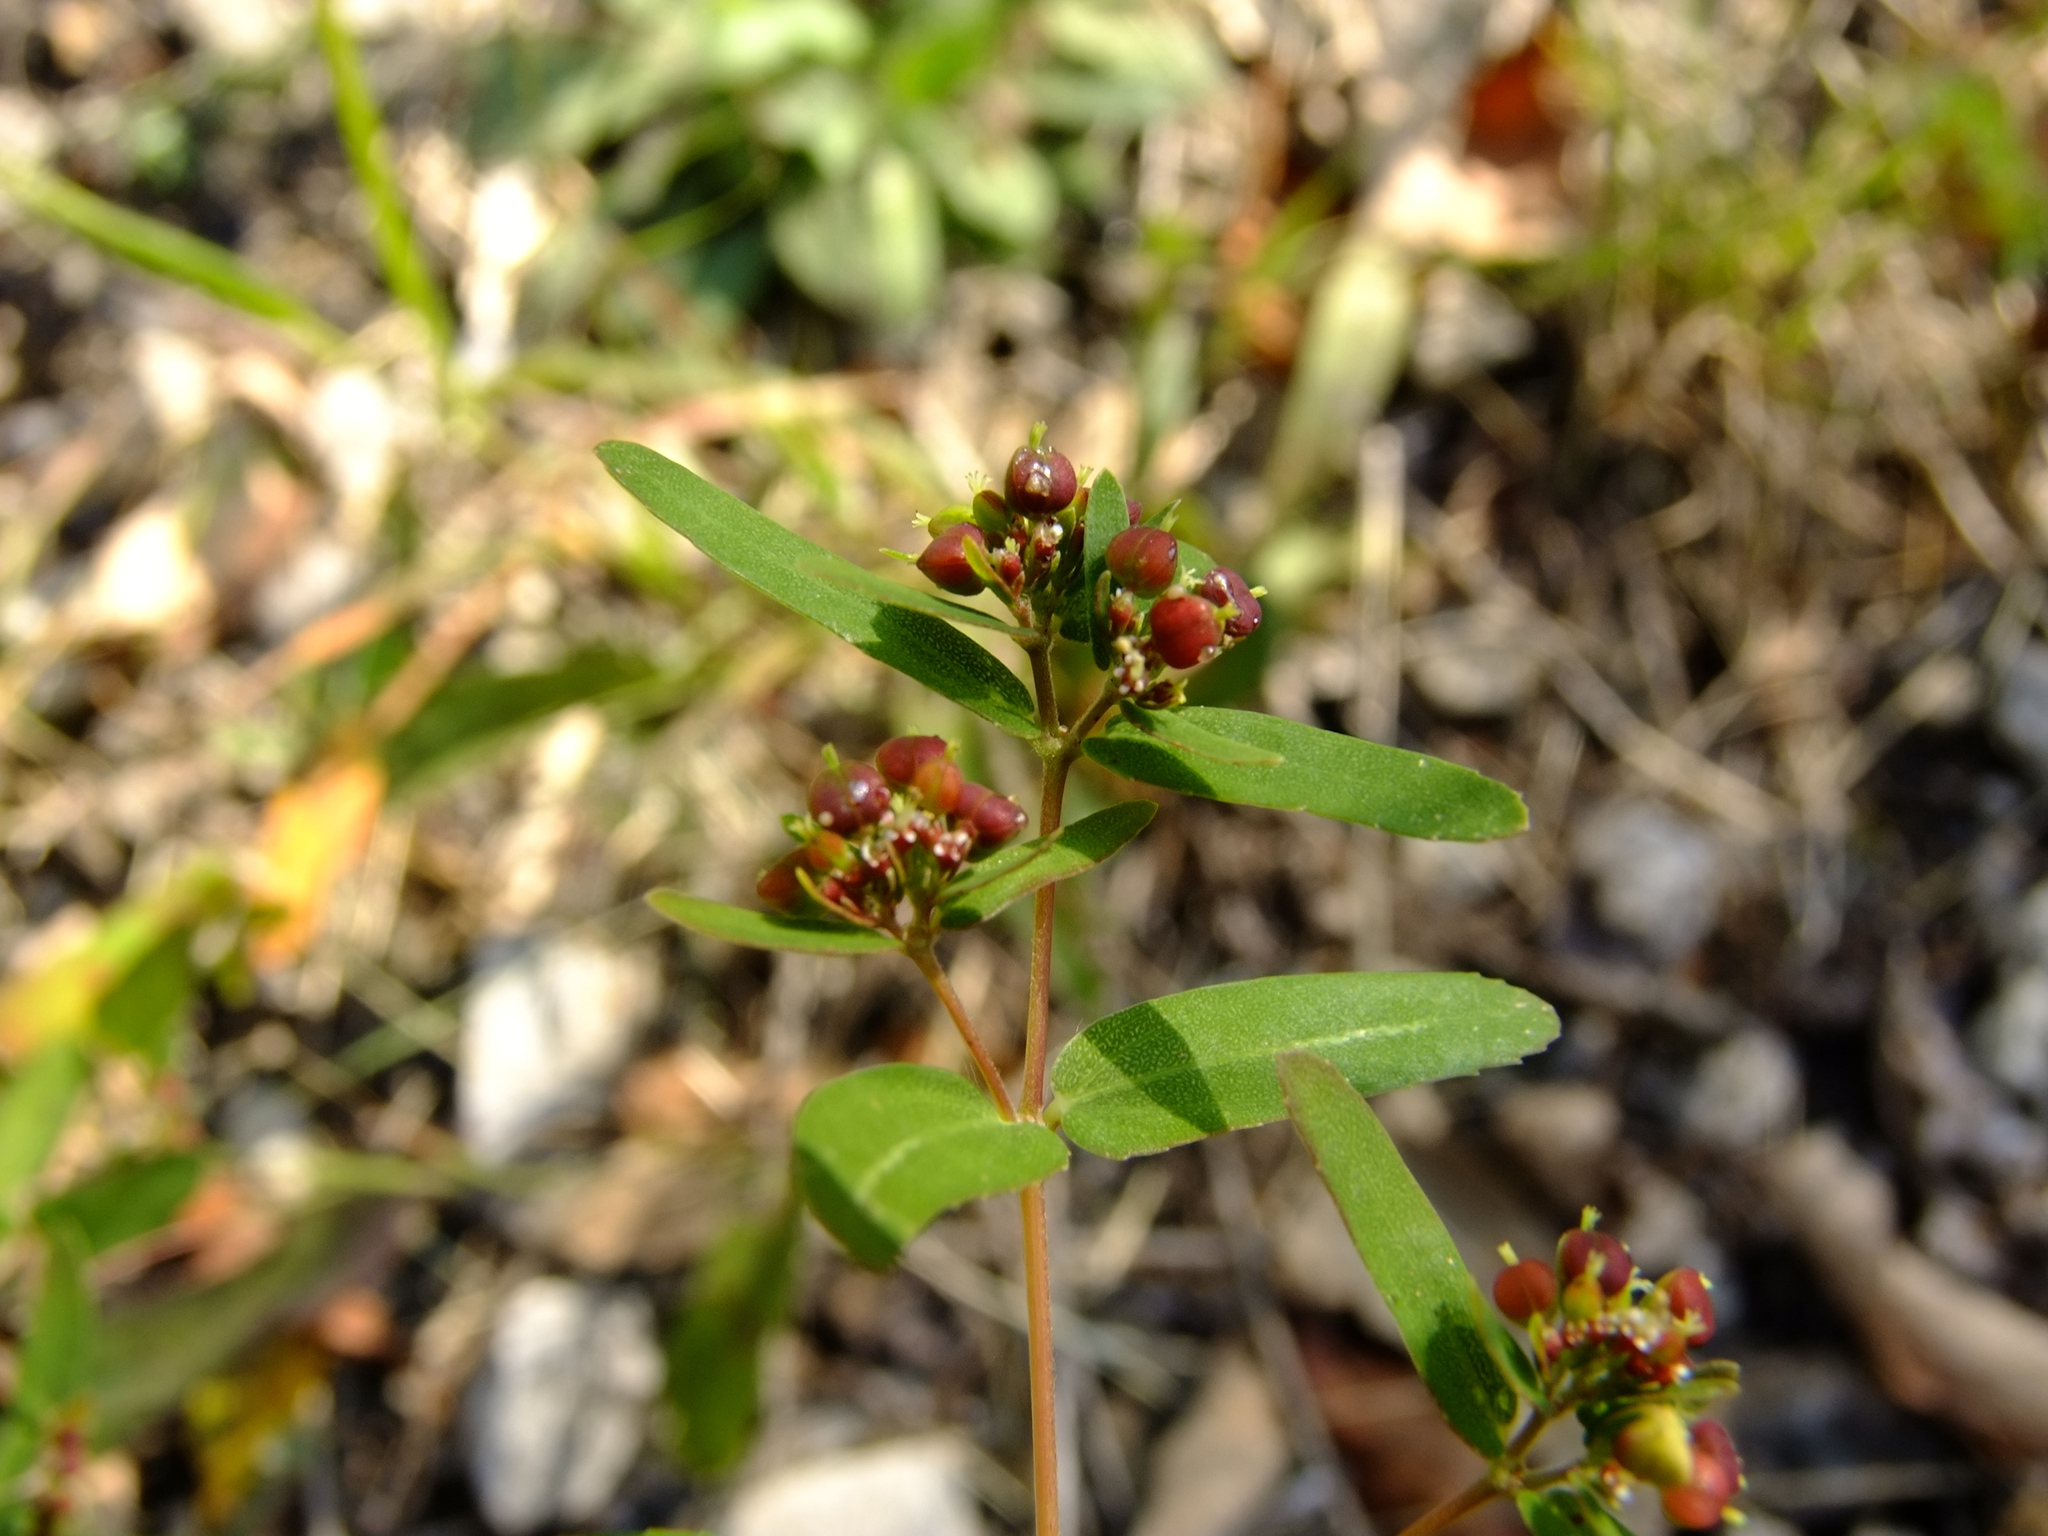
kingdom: Plantae
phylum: Tracheophyta
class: Magnoliopsida
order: Malpighiales
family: Euphorbiaceae
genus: Euphorbia
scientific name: Euphorbia nutans
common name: Eyebane
